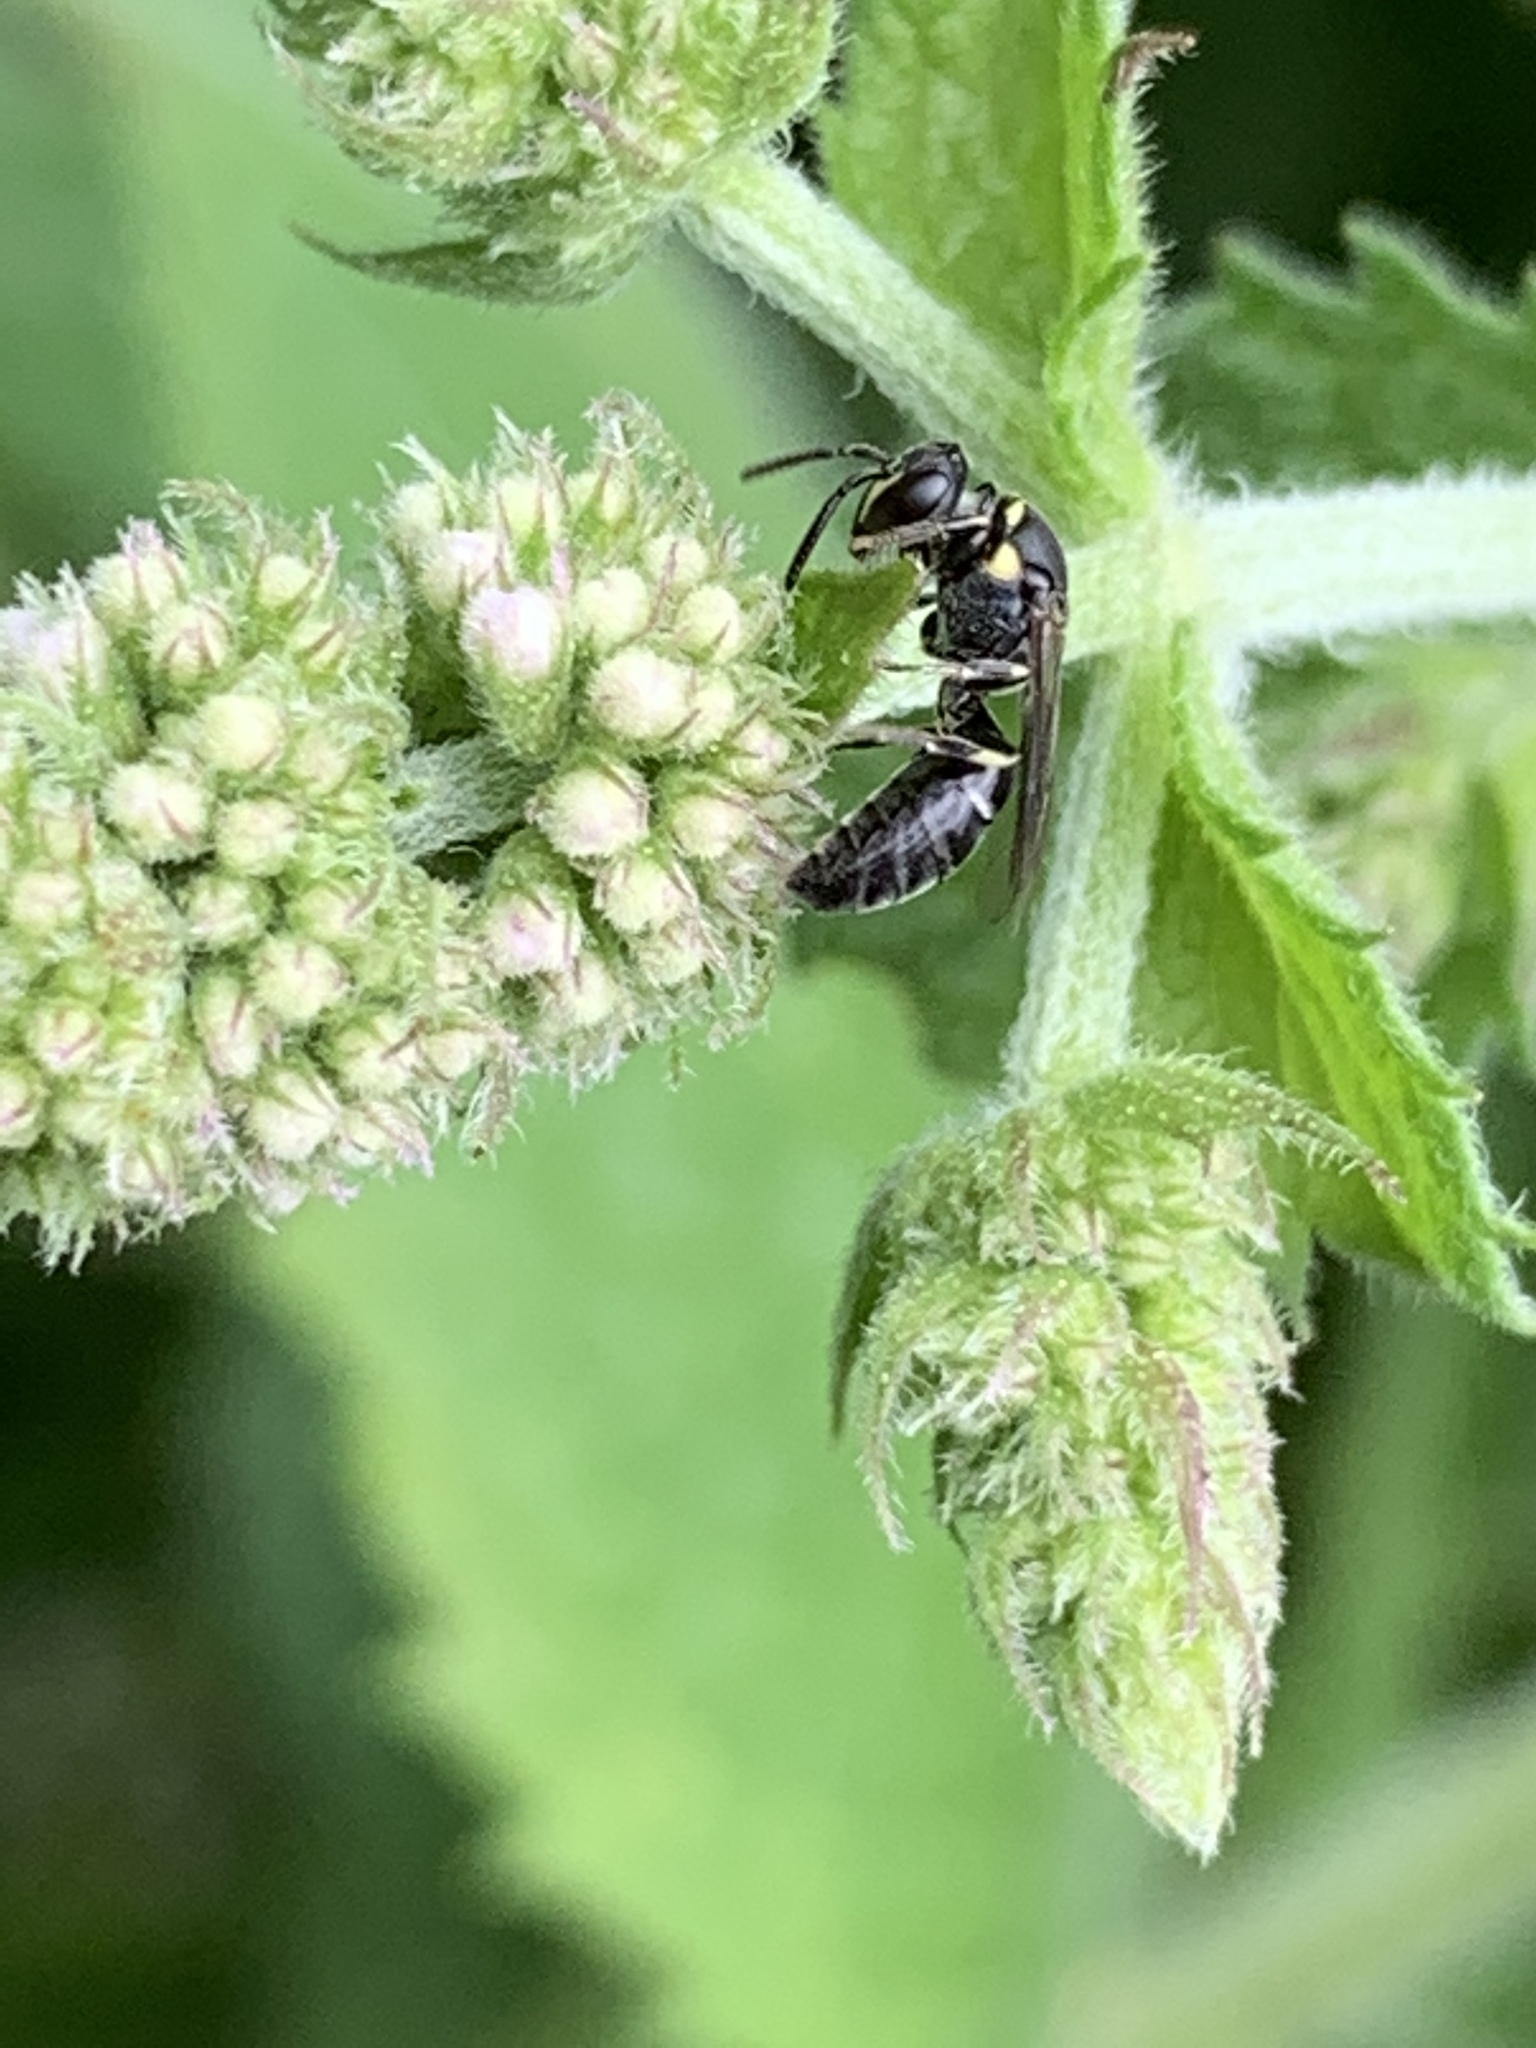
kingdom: Animalia
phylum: Arthropoda
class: Insecta
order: Hymenoptera
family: Colletidae
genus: Hylaeus
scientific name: Hylaeus modestus
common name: Yellow-faced bee
